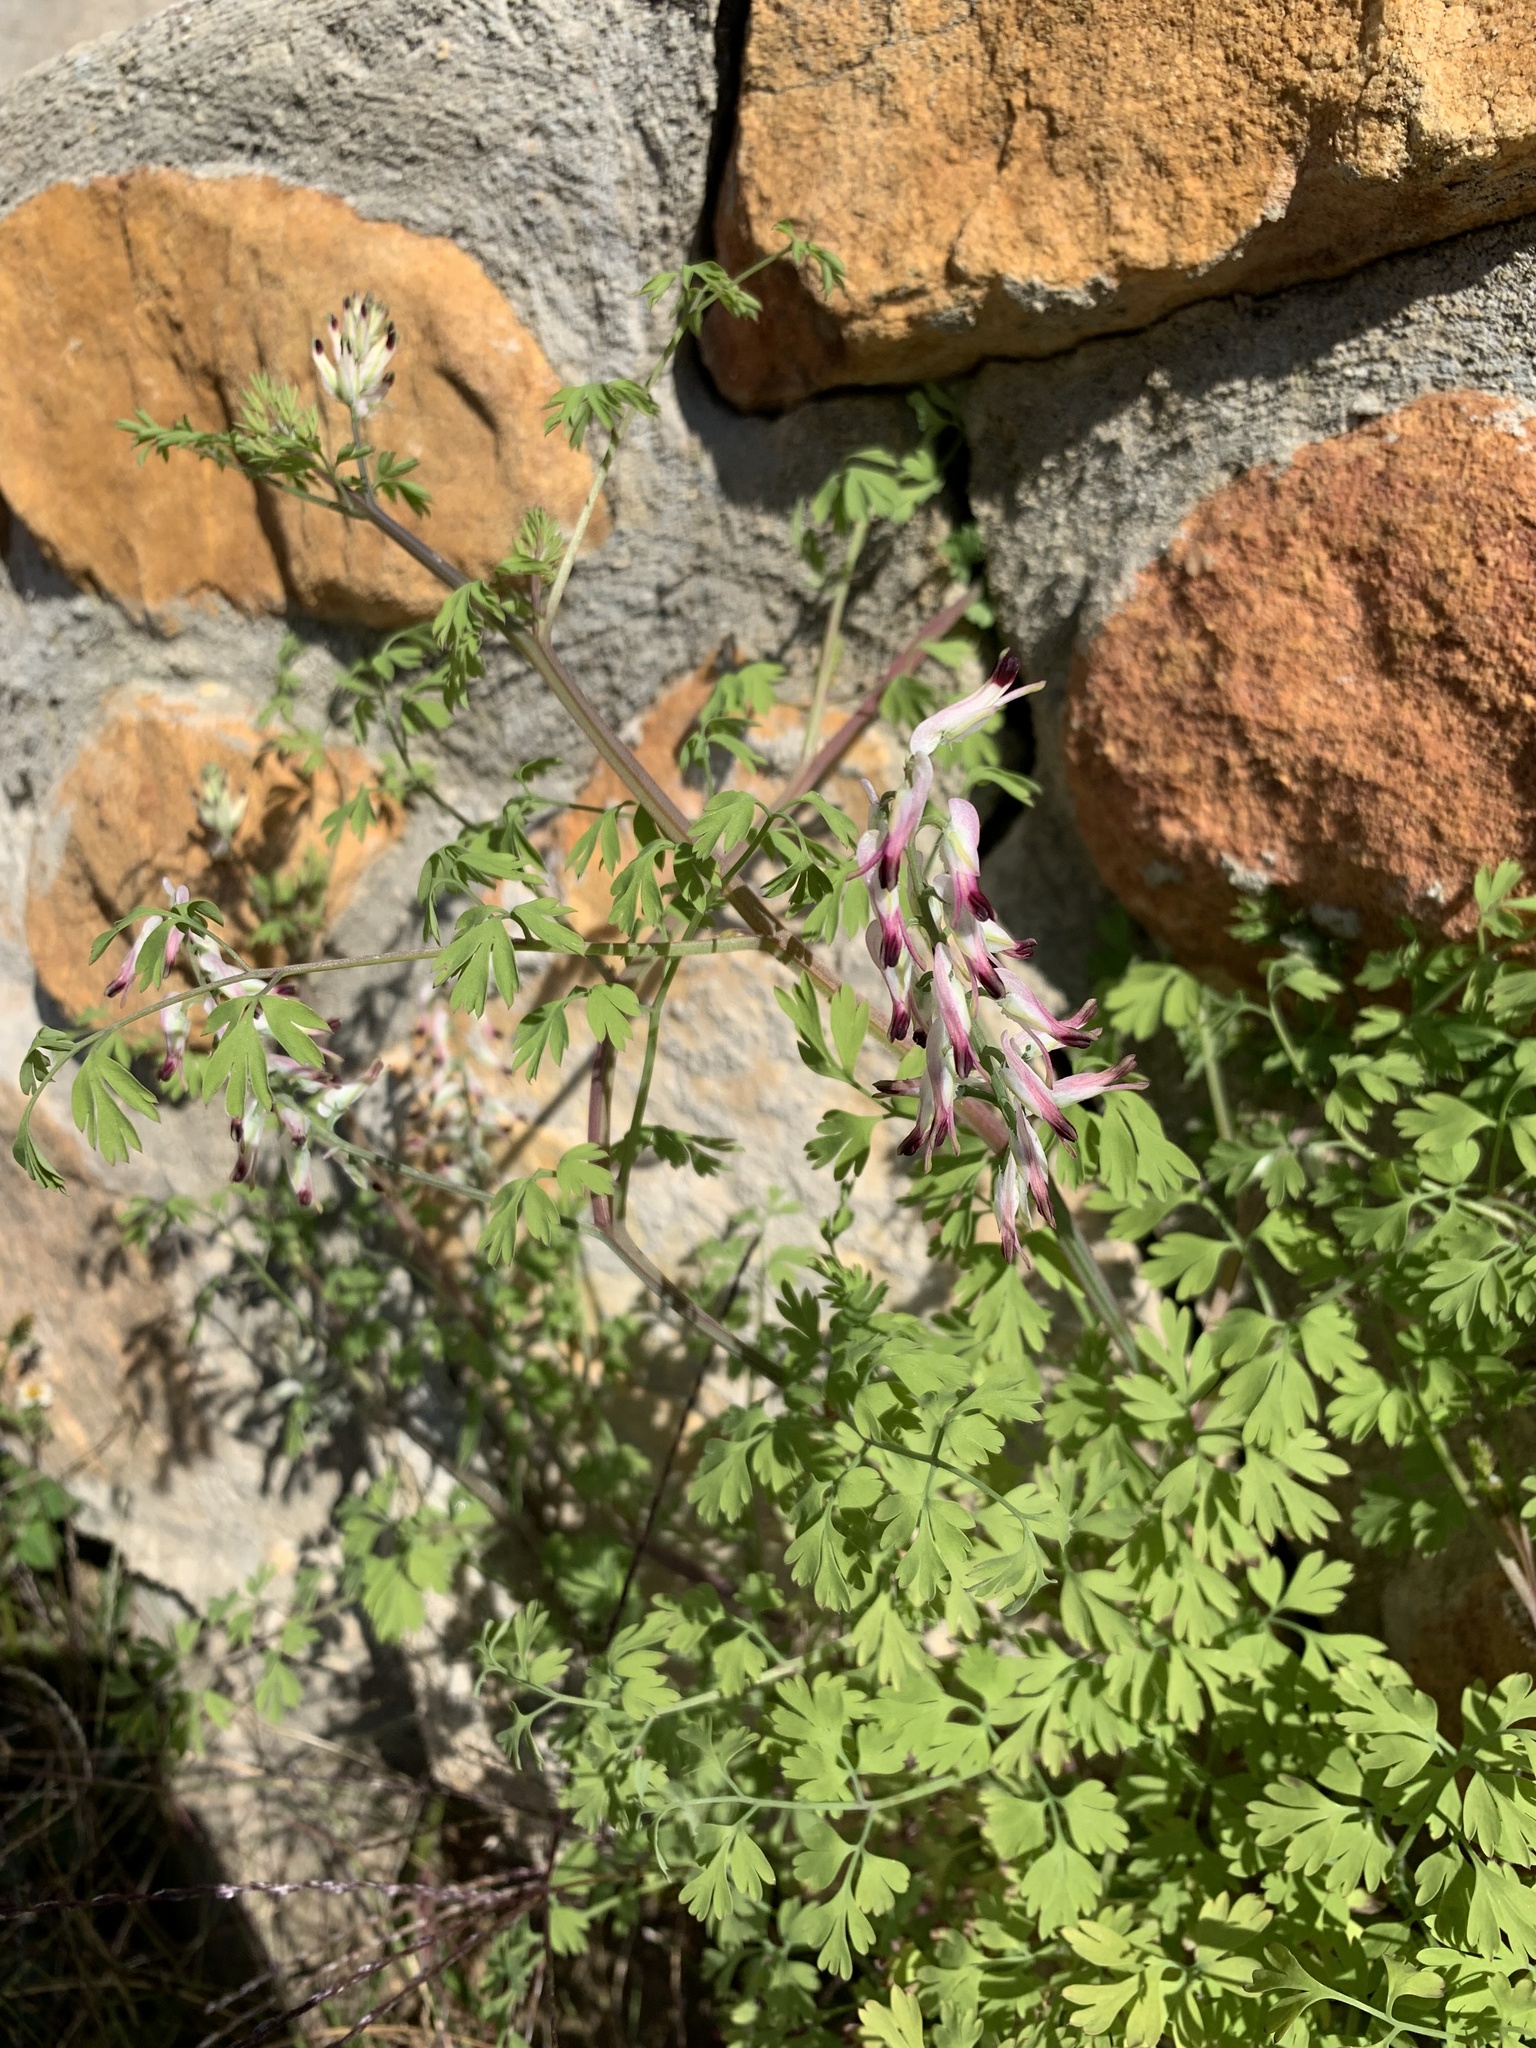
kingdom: Plantae
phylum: Tracheophyta
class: Magnoliopsida
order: Ranunculales
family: Papaveraceae
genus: Fumaria
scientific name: Fumaria capreolata
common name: White ramping-fumitory
